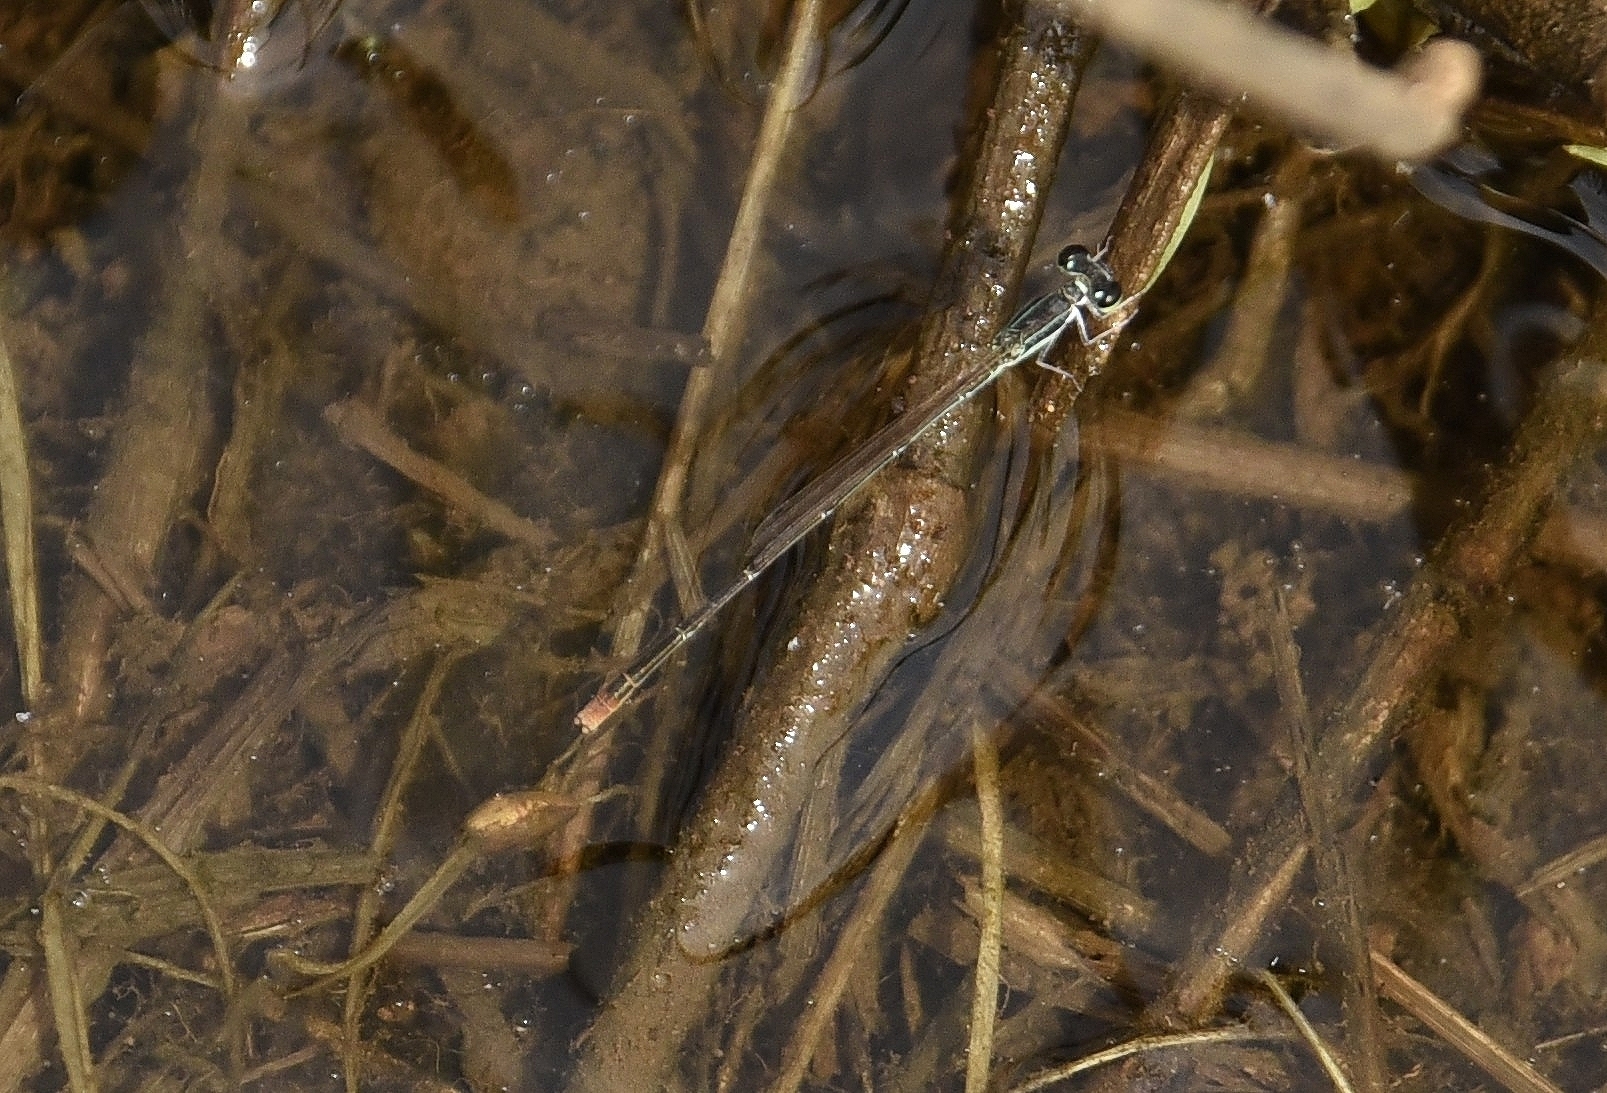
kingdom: Animalia
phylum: Arthropoda
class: Insecta
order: Odonata
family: Coenagrionidae
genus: Agriocnemis
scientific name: Agriocnemis pygmaea
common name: Pygmy wisp
